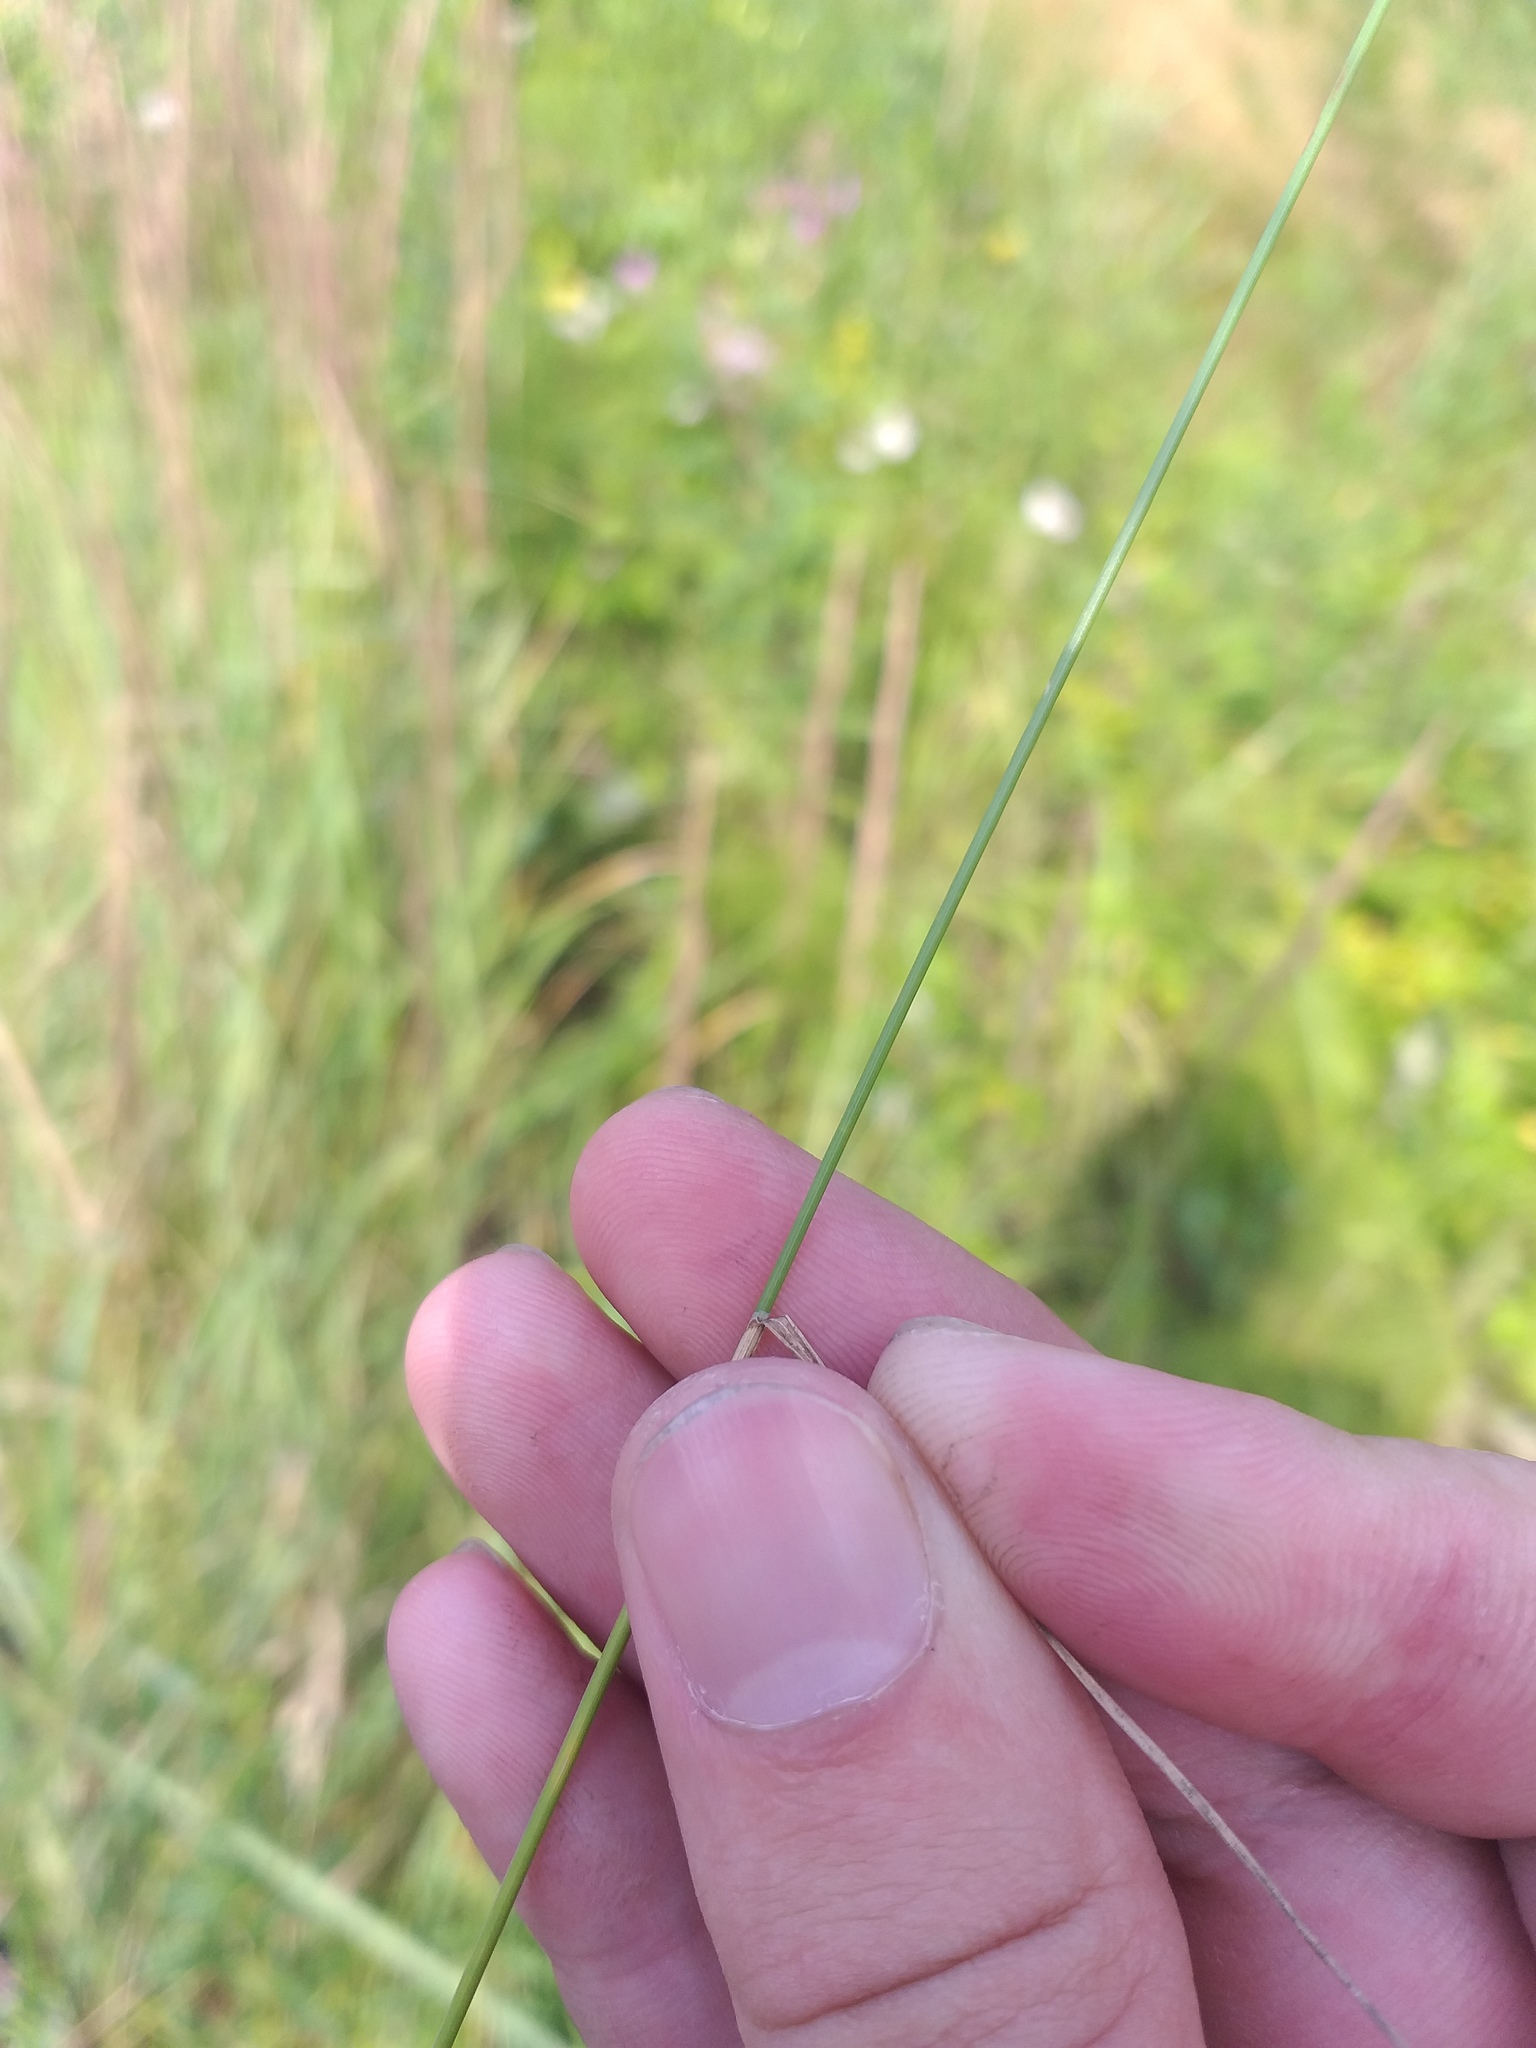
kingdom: Plantae
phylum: Tracheophyta
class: Liliopsida
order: Poales
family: Poaceae
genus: Poa
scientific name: Poa palustris
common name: Swamp meadow-grass
